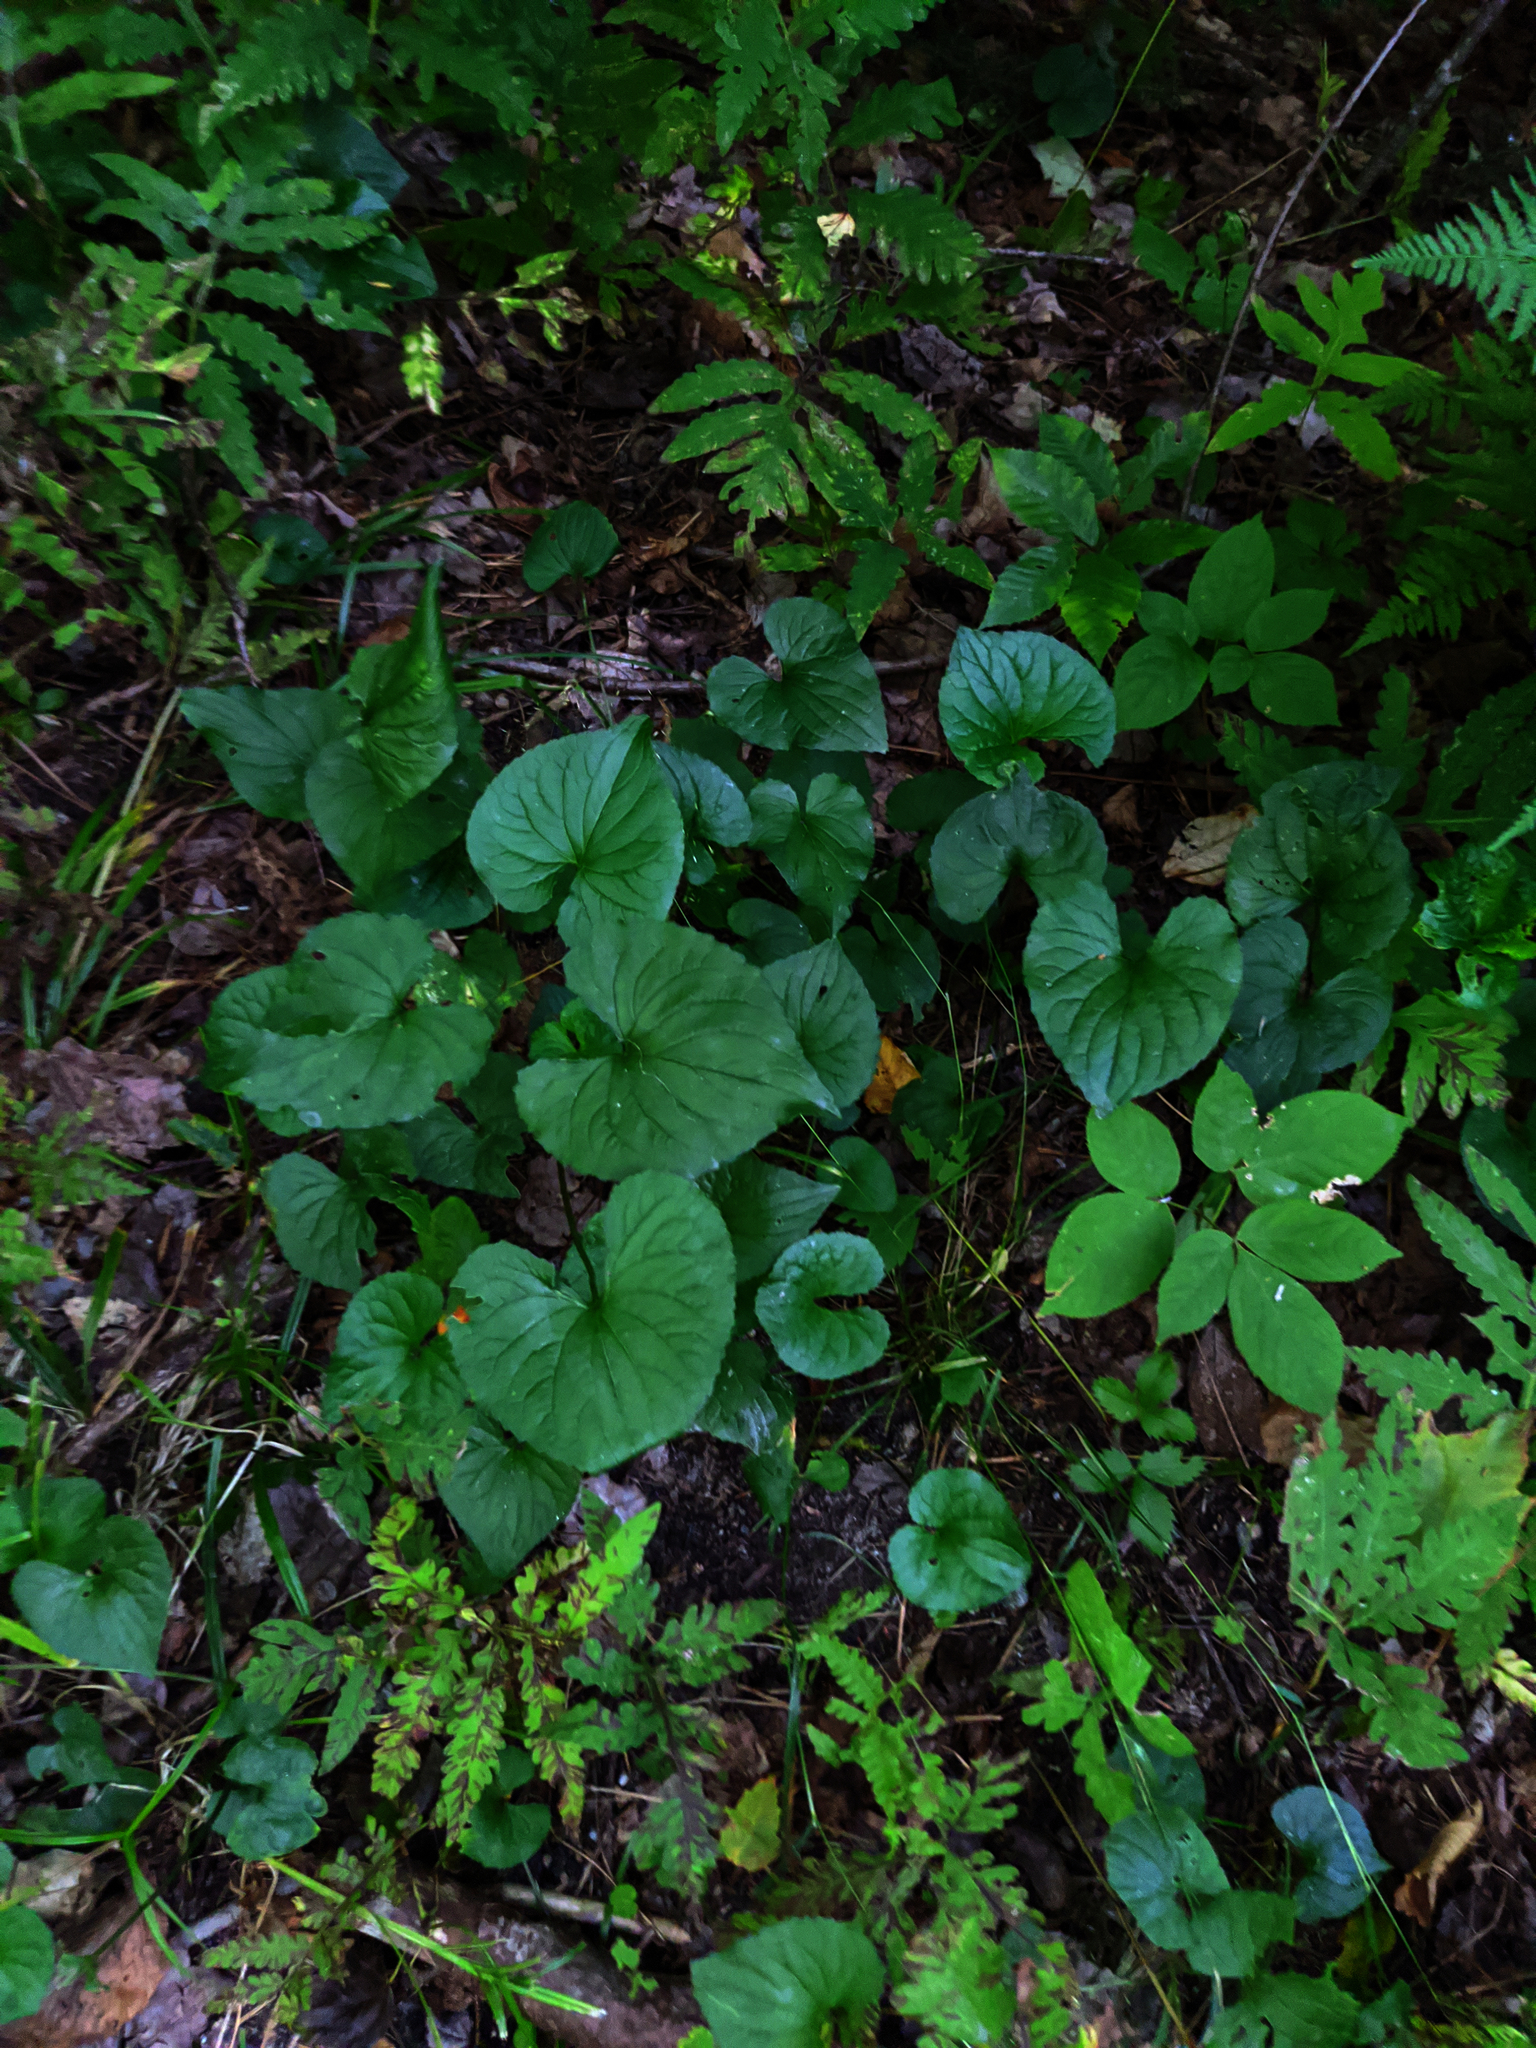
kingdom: Plantae
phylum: Tracheophyta
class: Polypodiopsida
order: Polypodiales
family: Onocleaceae
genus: Onoclea
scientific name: Onoclea sensibilis
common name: Sensitive fern
